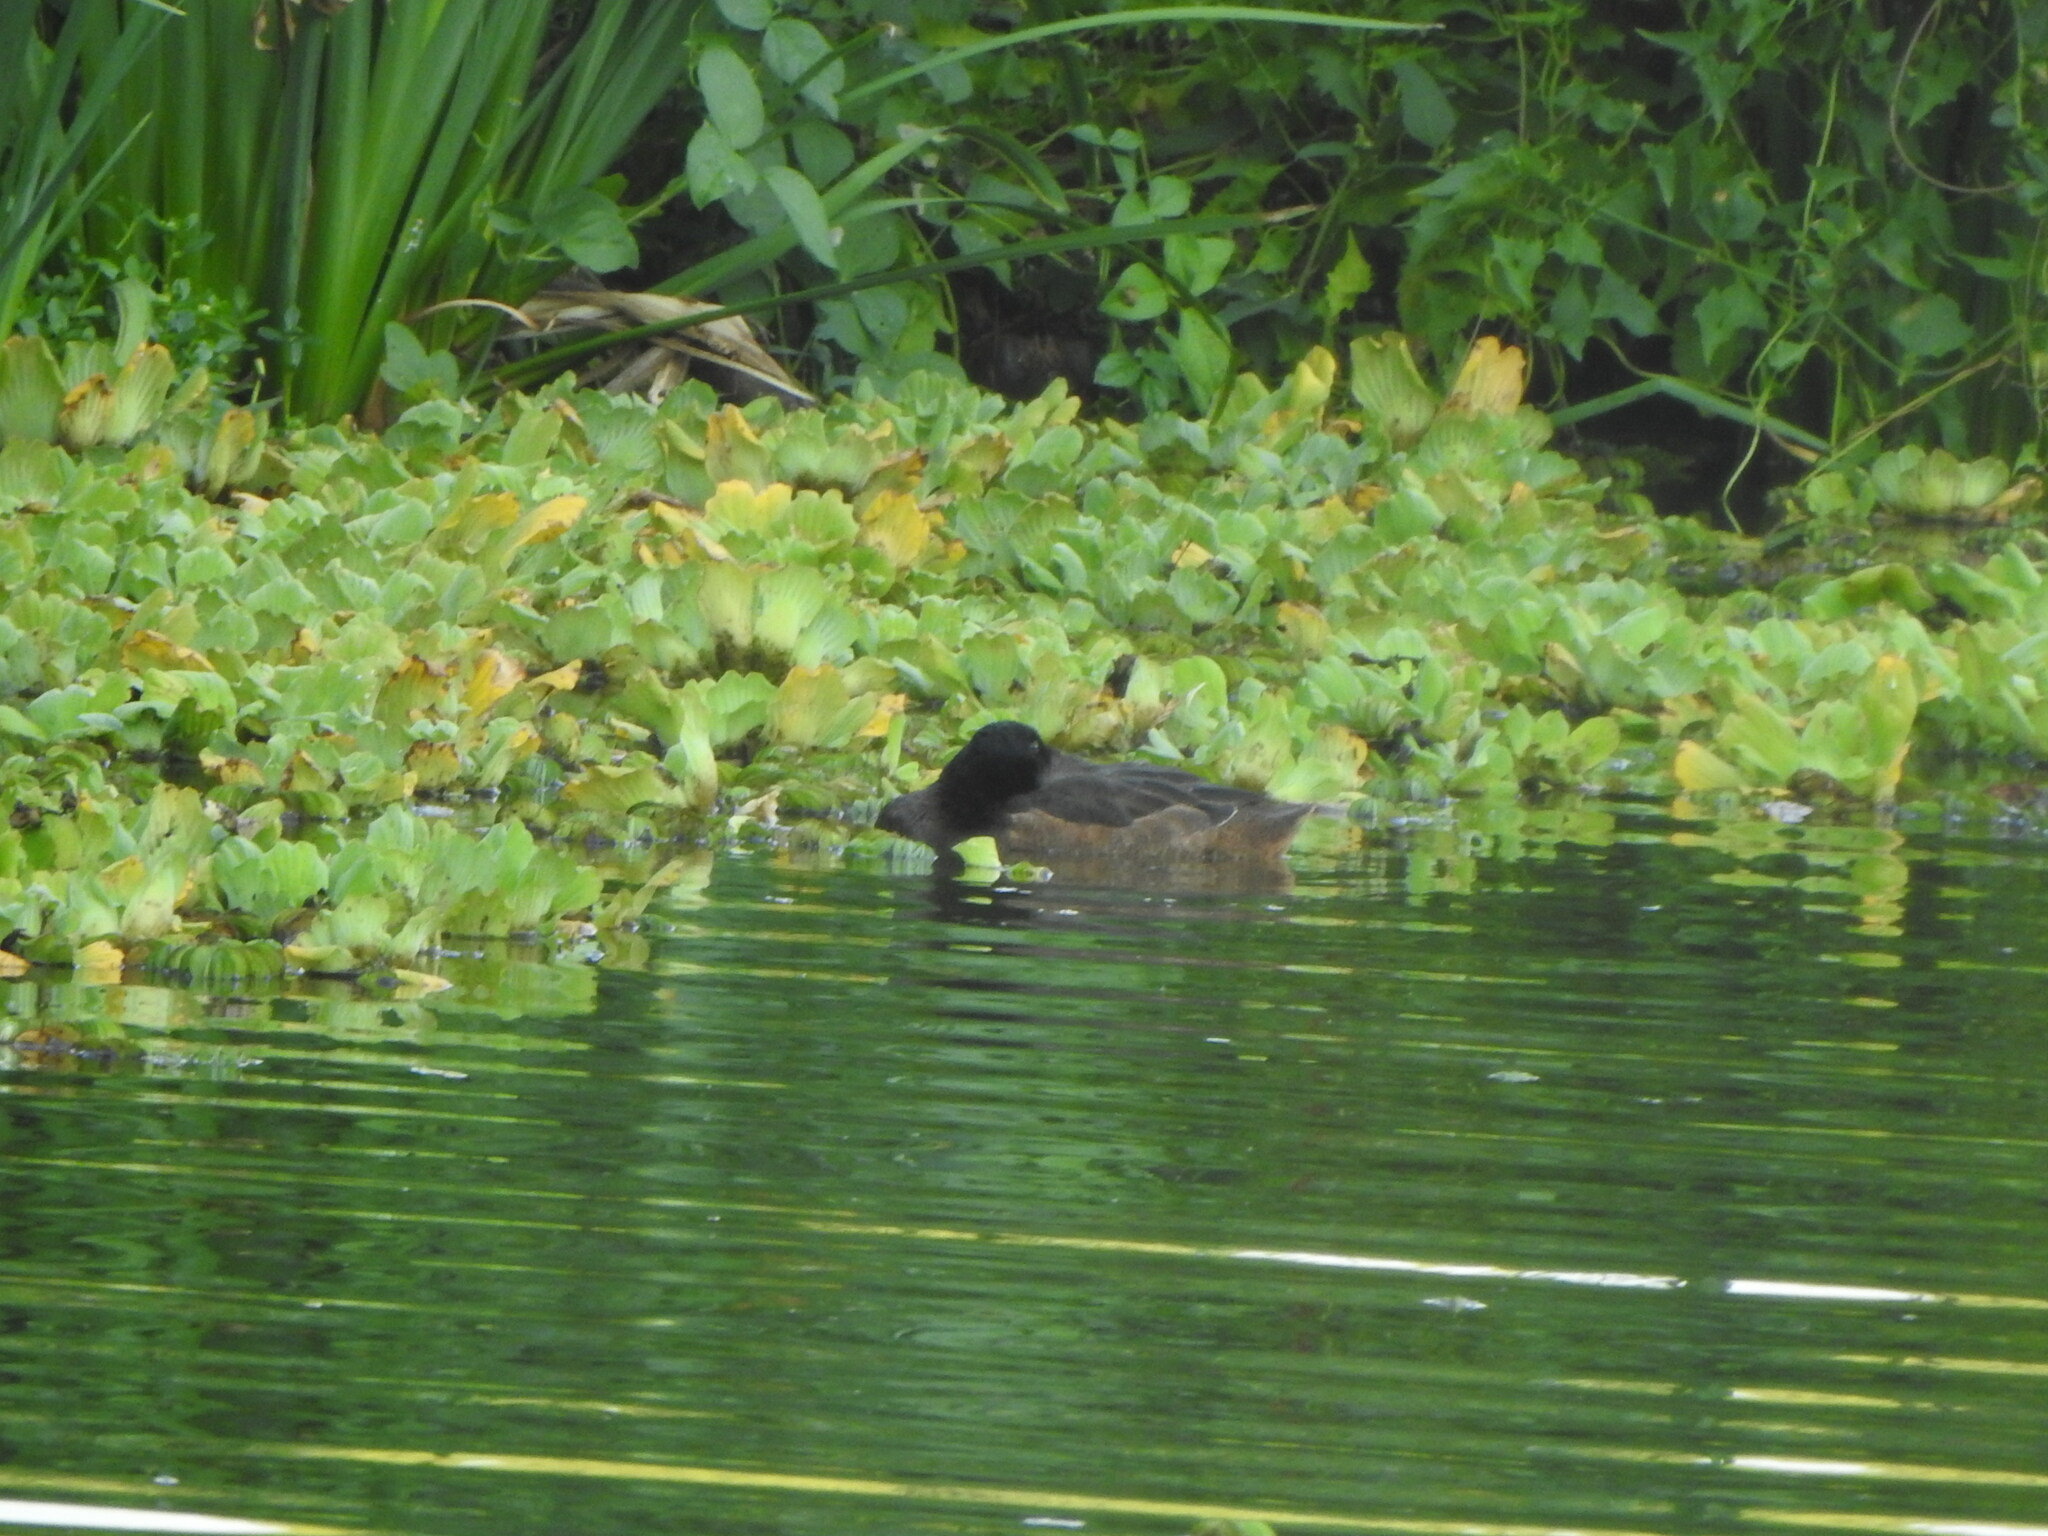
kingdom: Animalia
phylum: Chordata
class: Aves
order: Anseriformes
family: Anatidae
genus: Heteronetta
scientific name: Heteronetta atricapilla
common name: Black-headed duck
